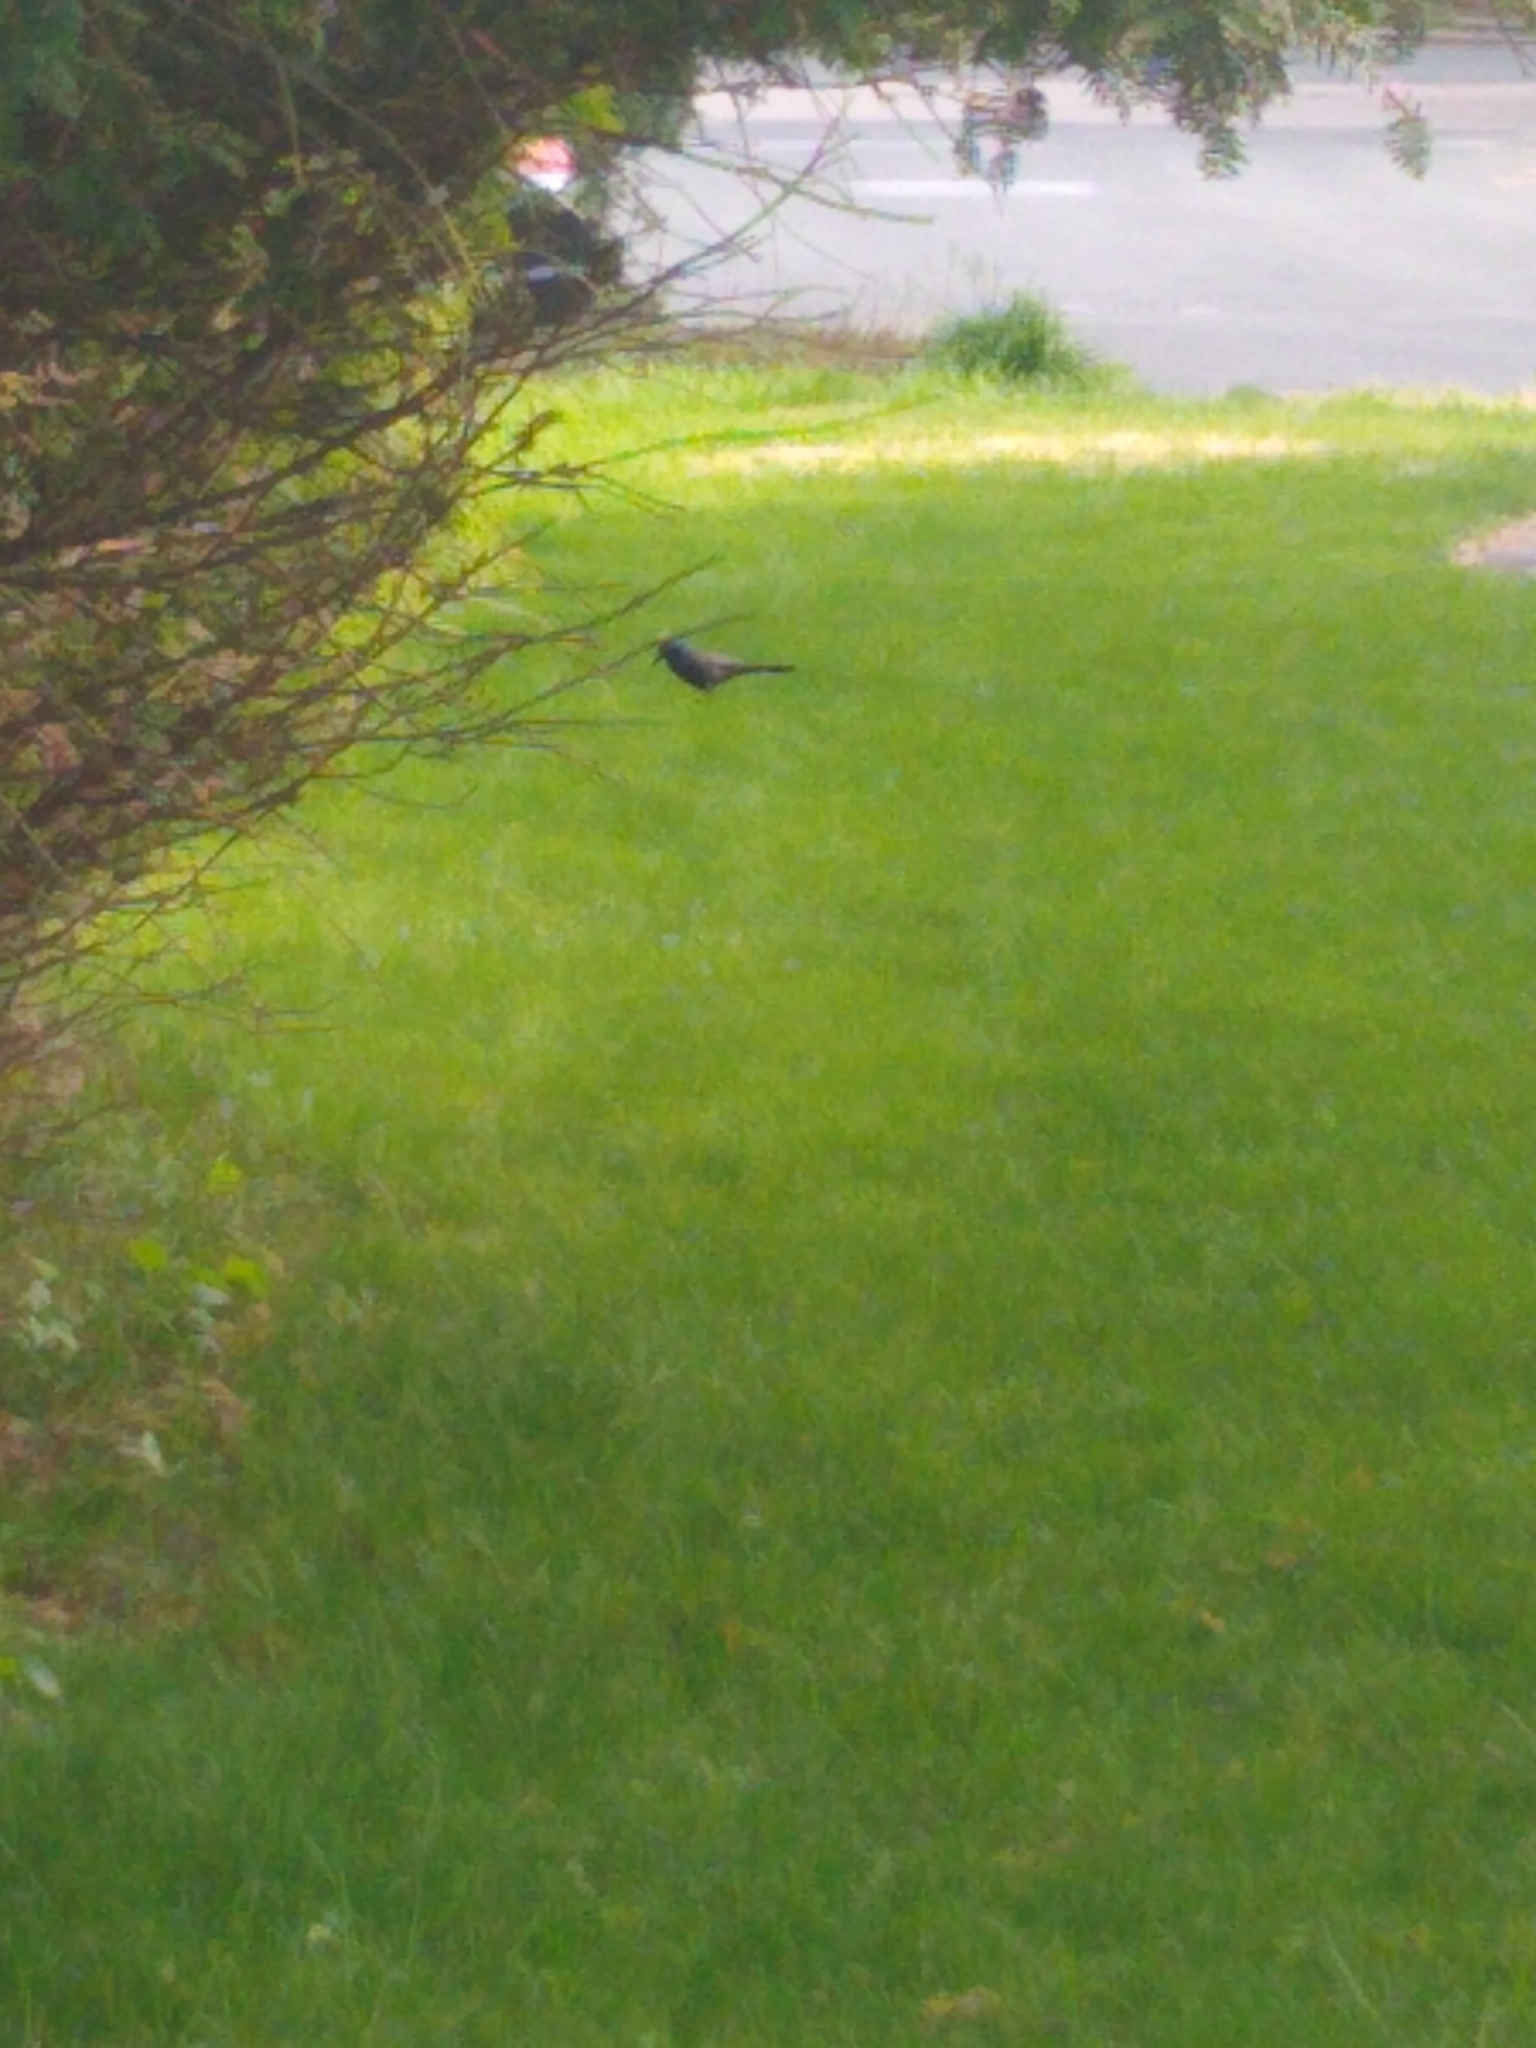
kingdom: Animalia
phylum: Chordata
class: Aves
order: Passeriformes
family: Icteridae
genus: Quiscalus
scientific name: Quiscalus quiscula
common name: Common grackle
